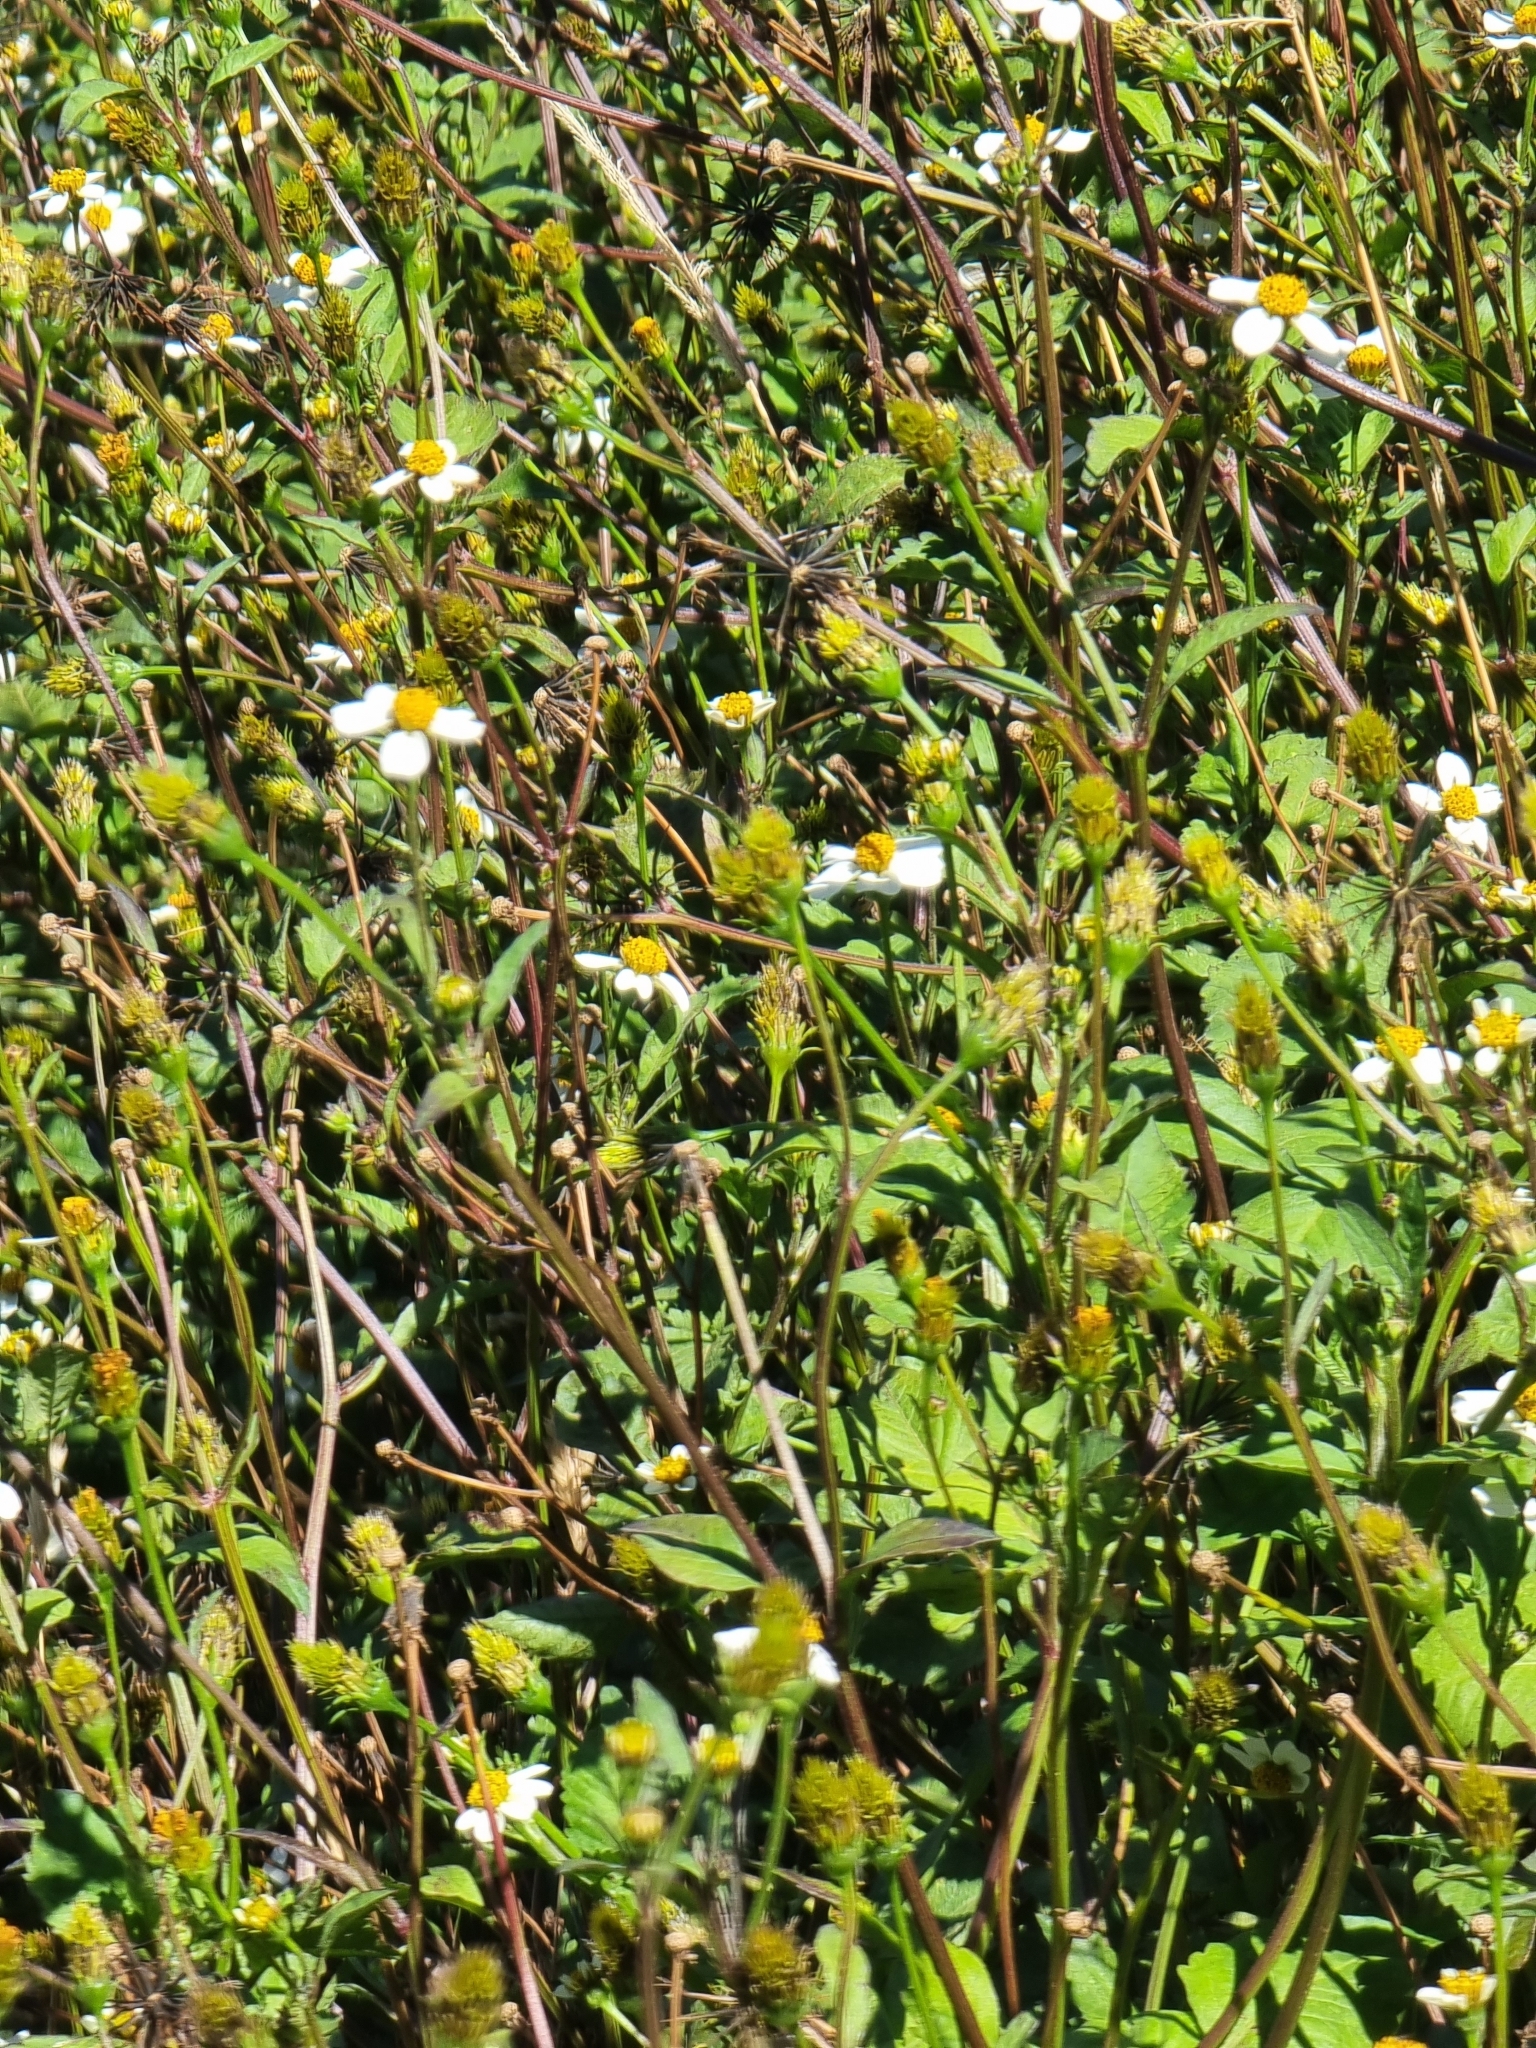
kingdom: Plantae
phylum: Tracheophyta
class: Magnoliopsida
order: Asterales
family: Asteraceae
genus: Bidens
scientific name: Bidens pilosa
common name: Black-jack
